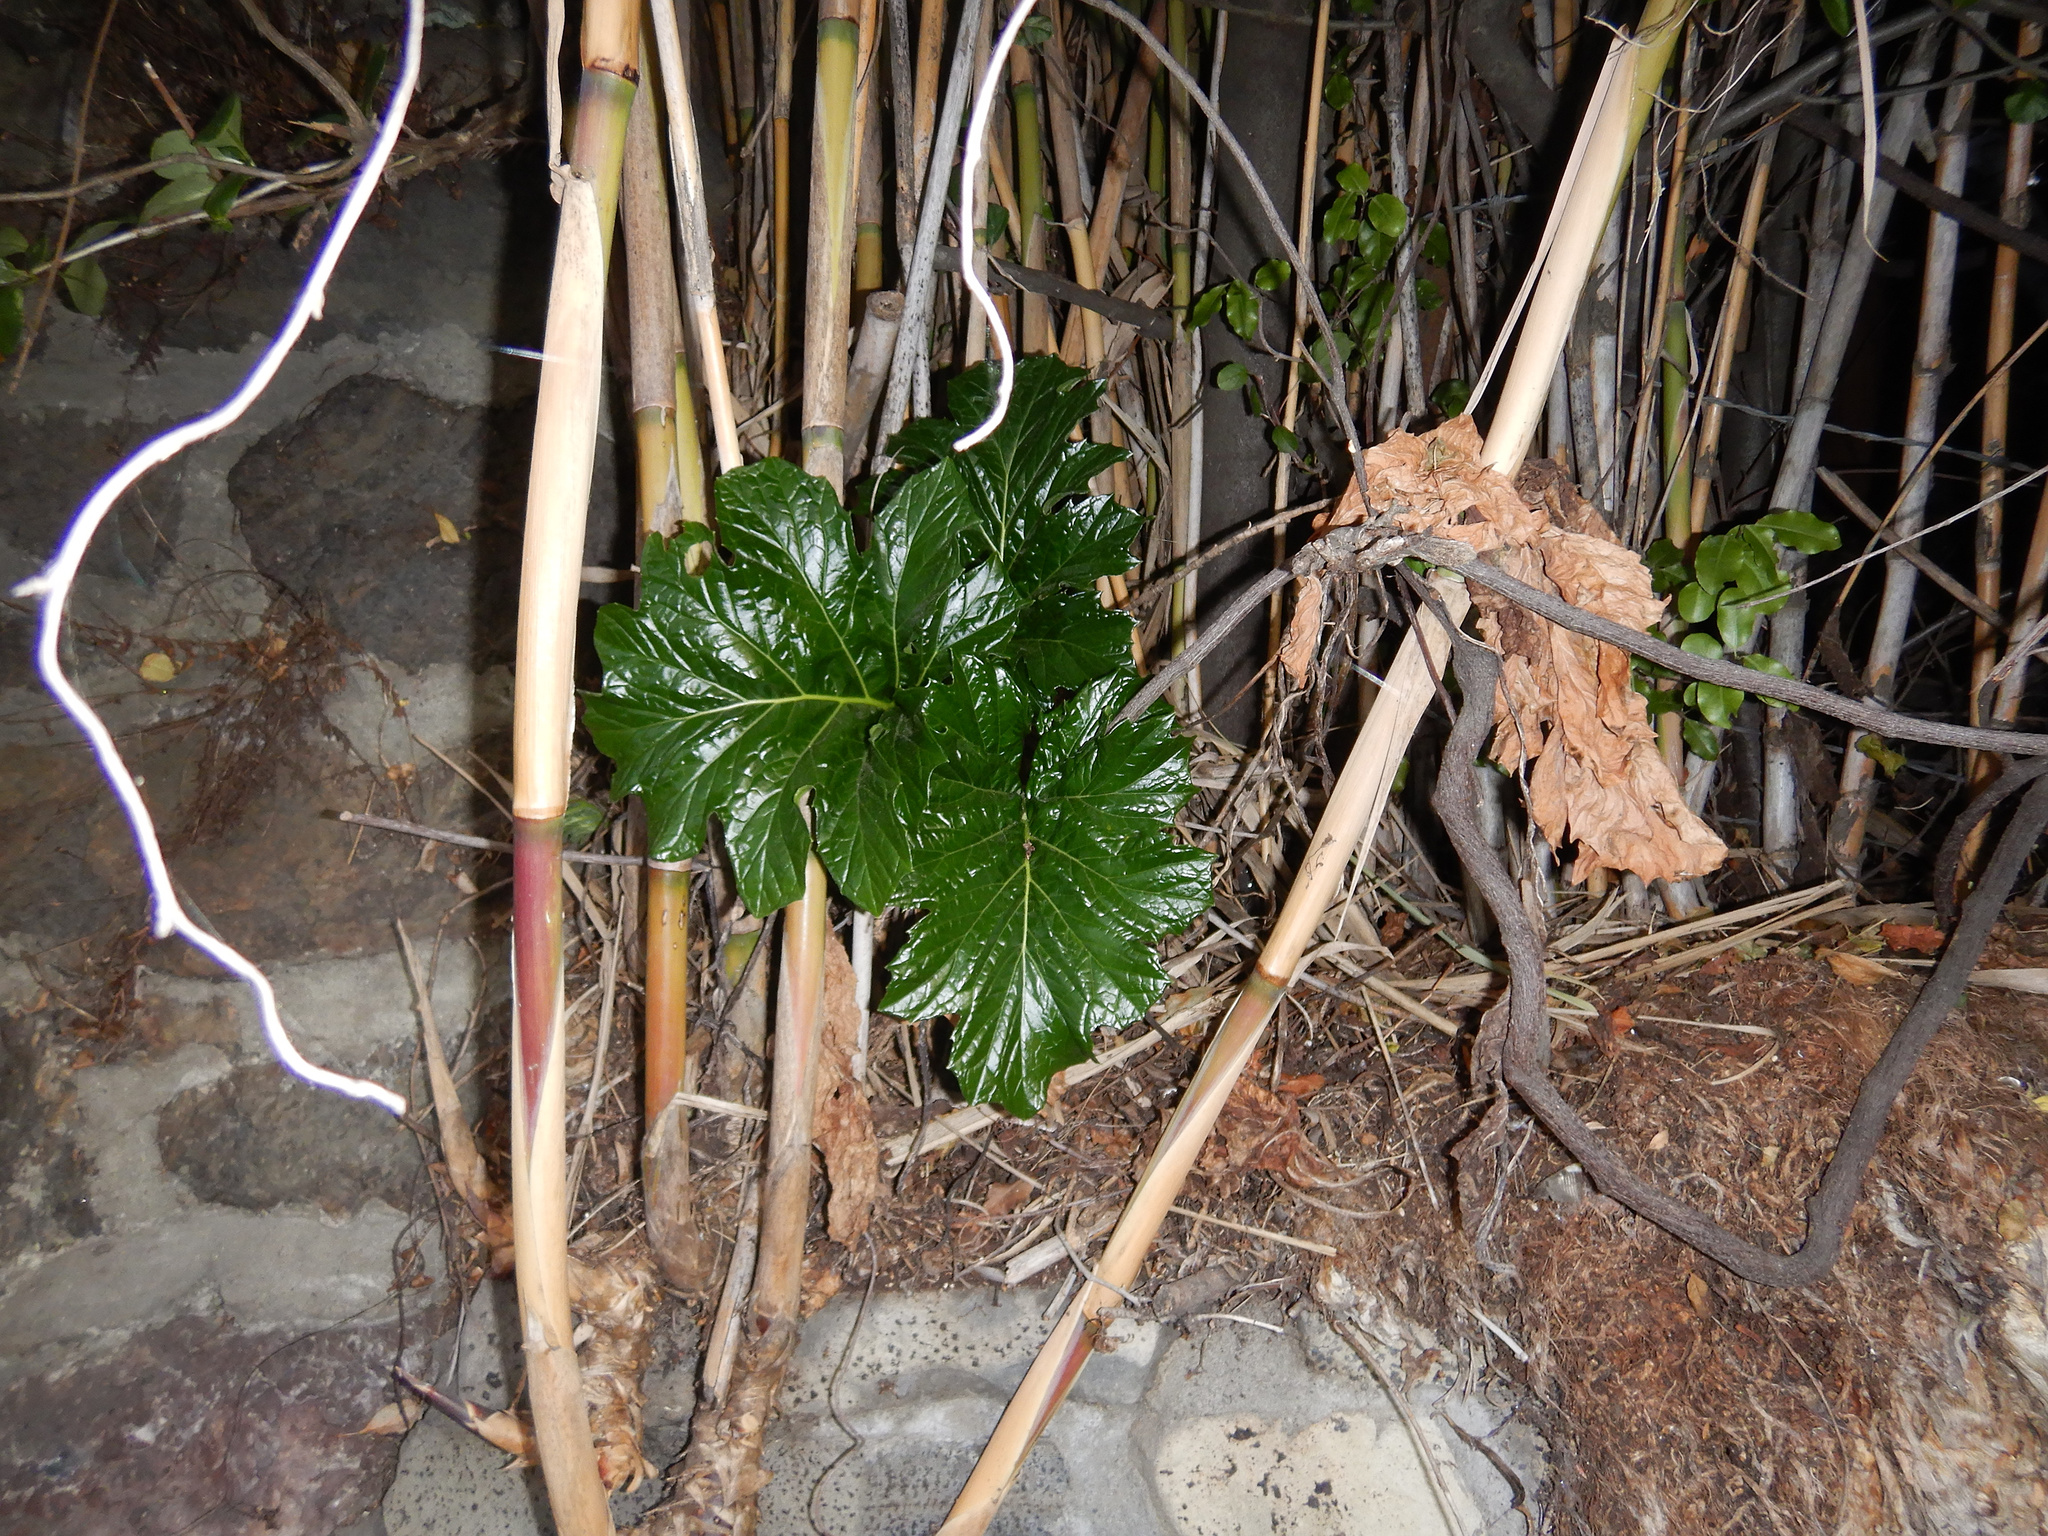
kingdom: Plantae
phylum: Tracheophyta
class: Magnoliopsida
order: Lamiales
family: Acanthaceae
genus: Acanthus
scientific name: Acanthus mollis
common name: Bear's-breech
